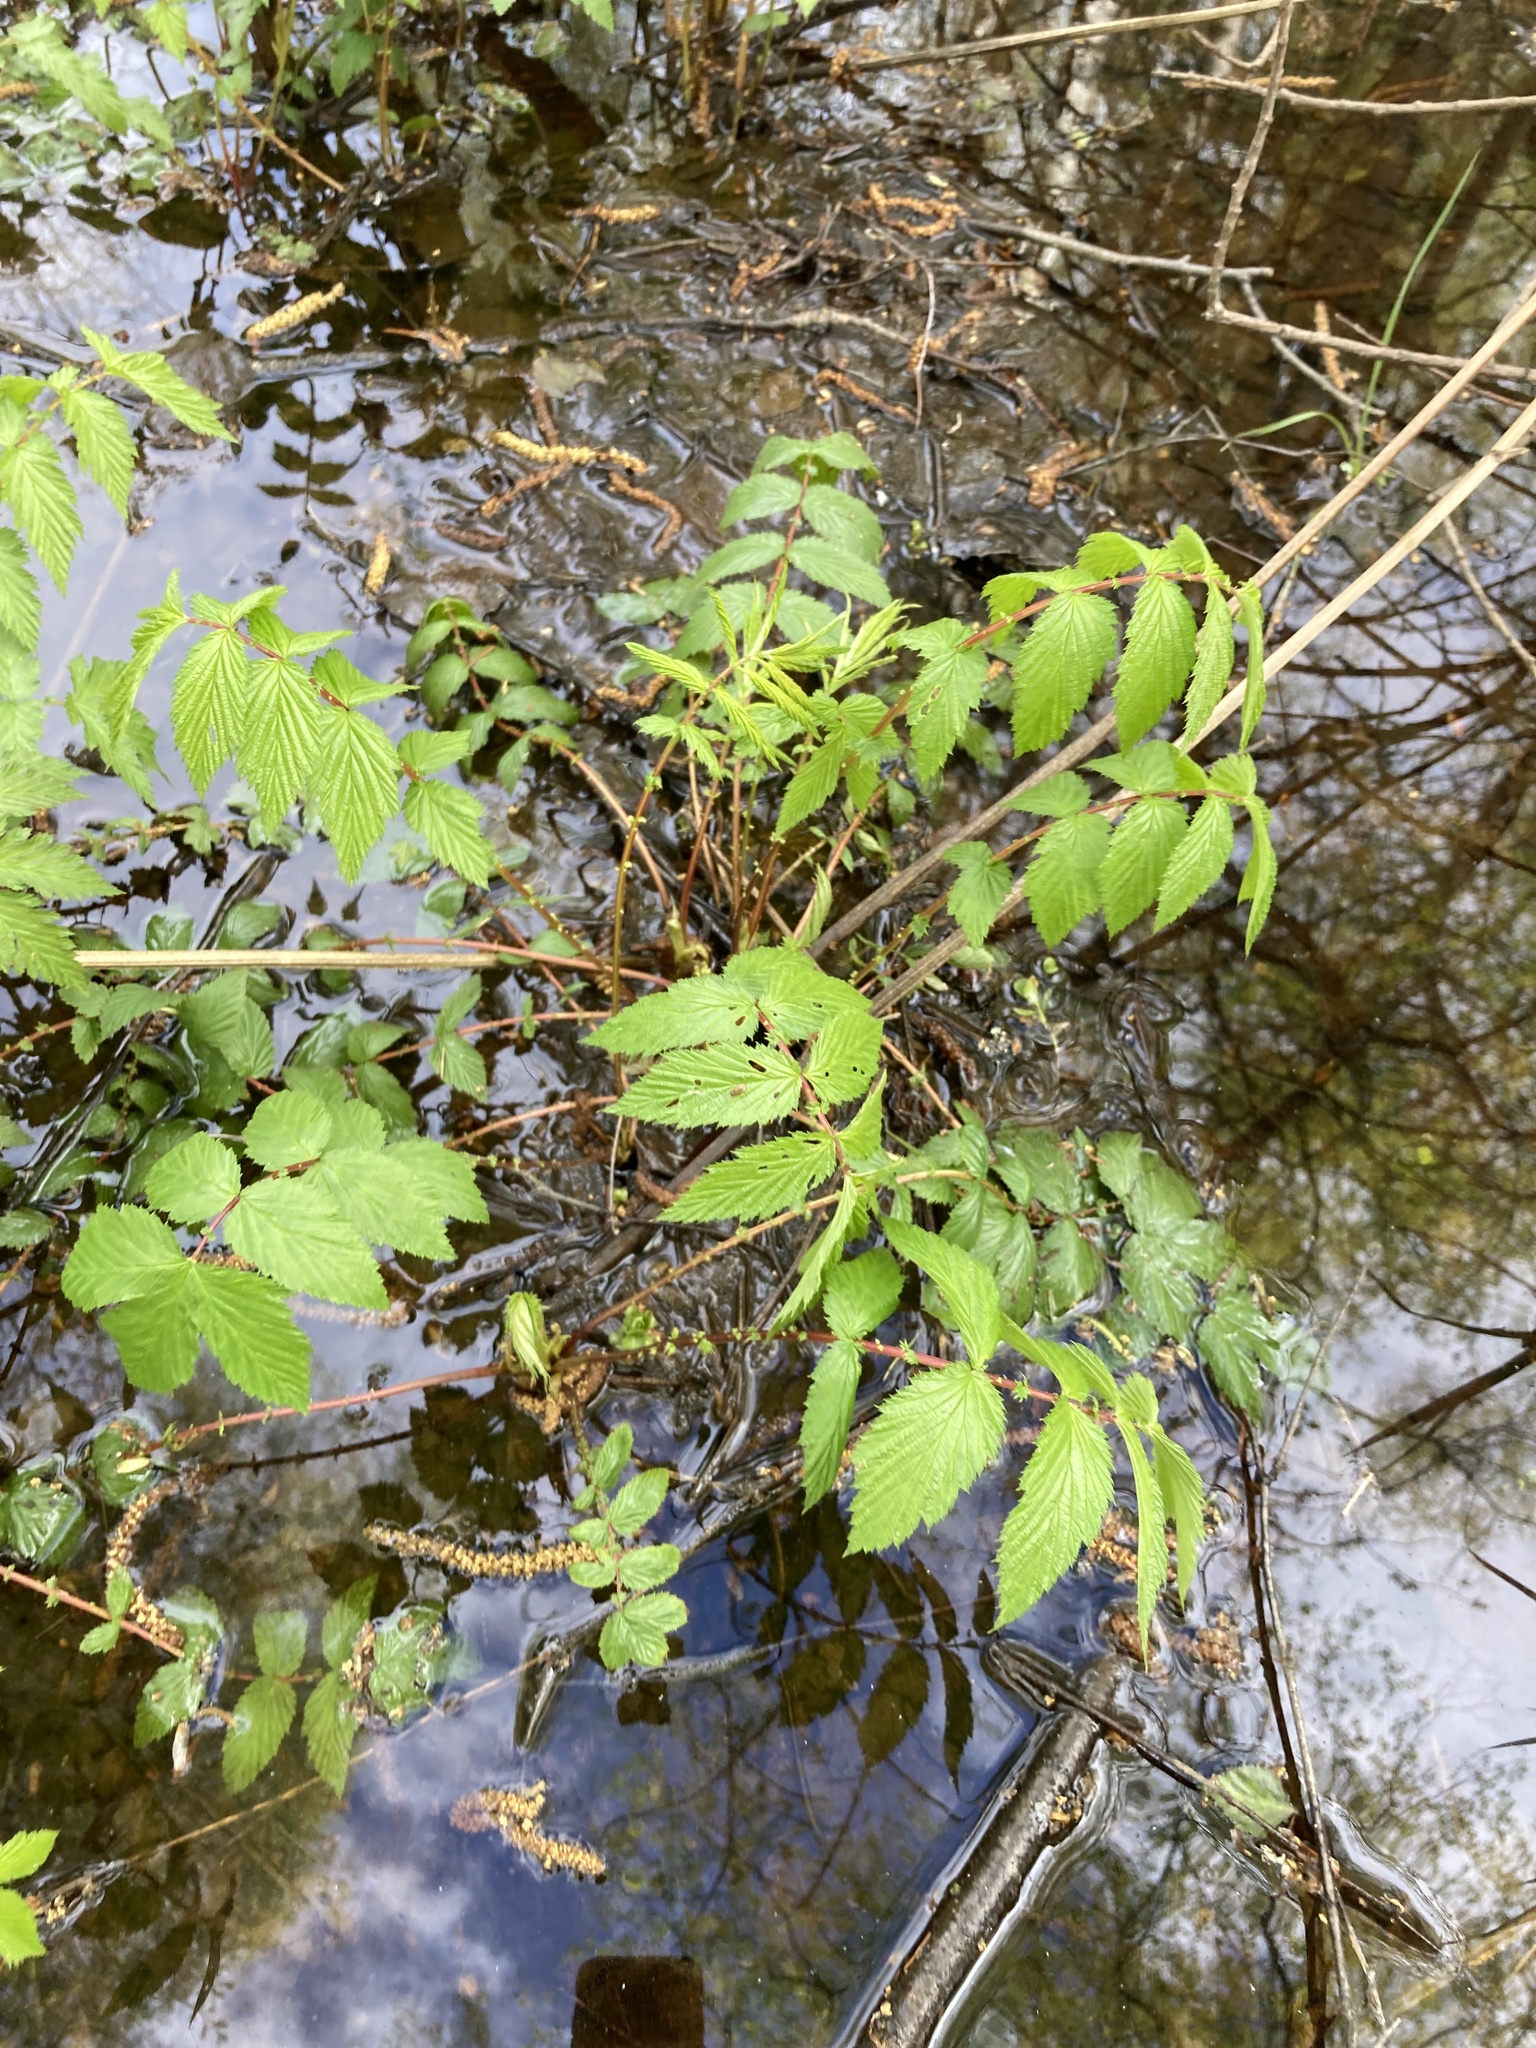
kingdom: Plantae
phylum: Tracheophyta
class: Magnoliopsida
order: Rosales
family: Rosaceae
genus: Filipendula
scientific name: Filipendula ulmaria
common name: Meadowsweet
